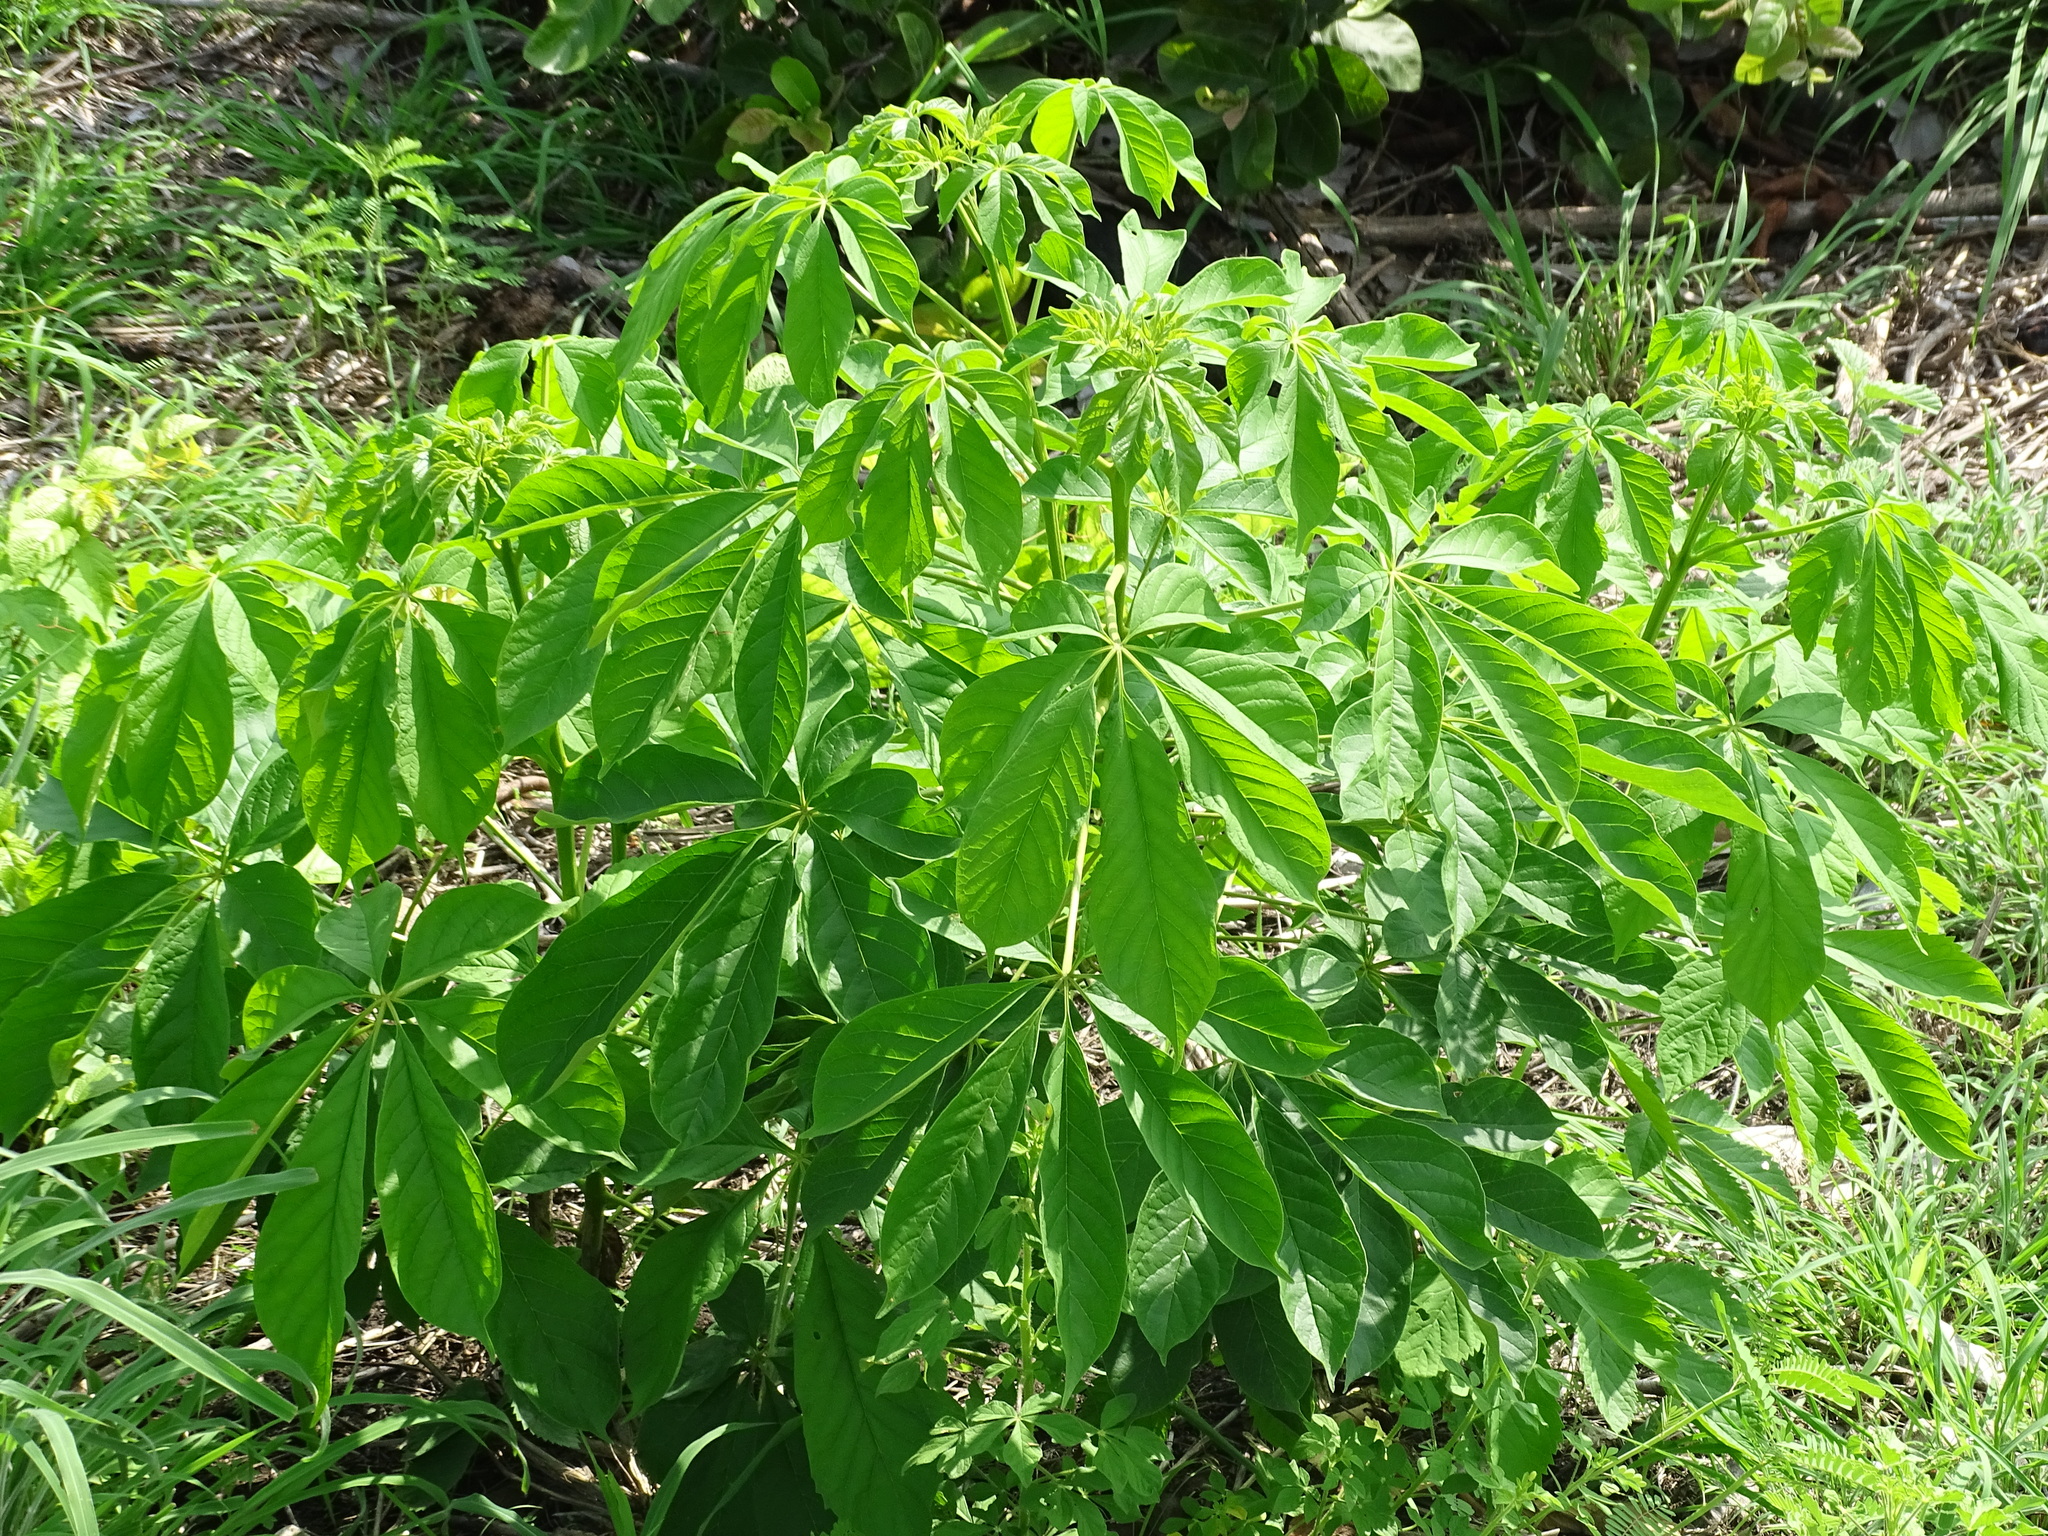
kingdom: Plantae
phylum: Tracheophyta
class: Magnoliopsida
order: Lamiales
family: Bignoniaceae
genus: Godmania
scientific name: Godmania aesculifolia
